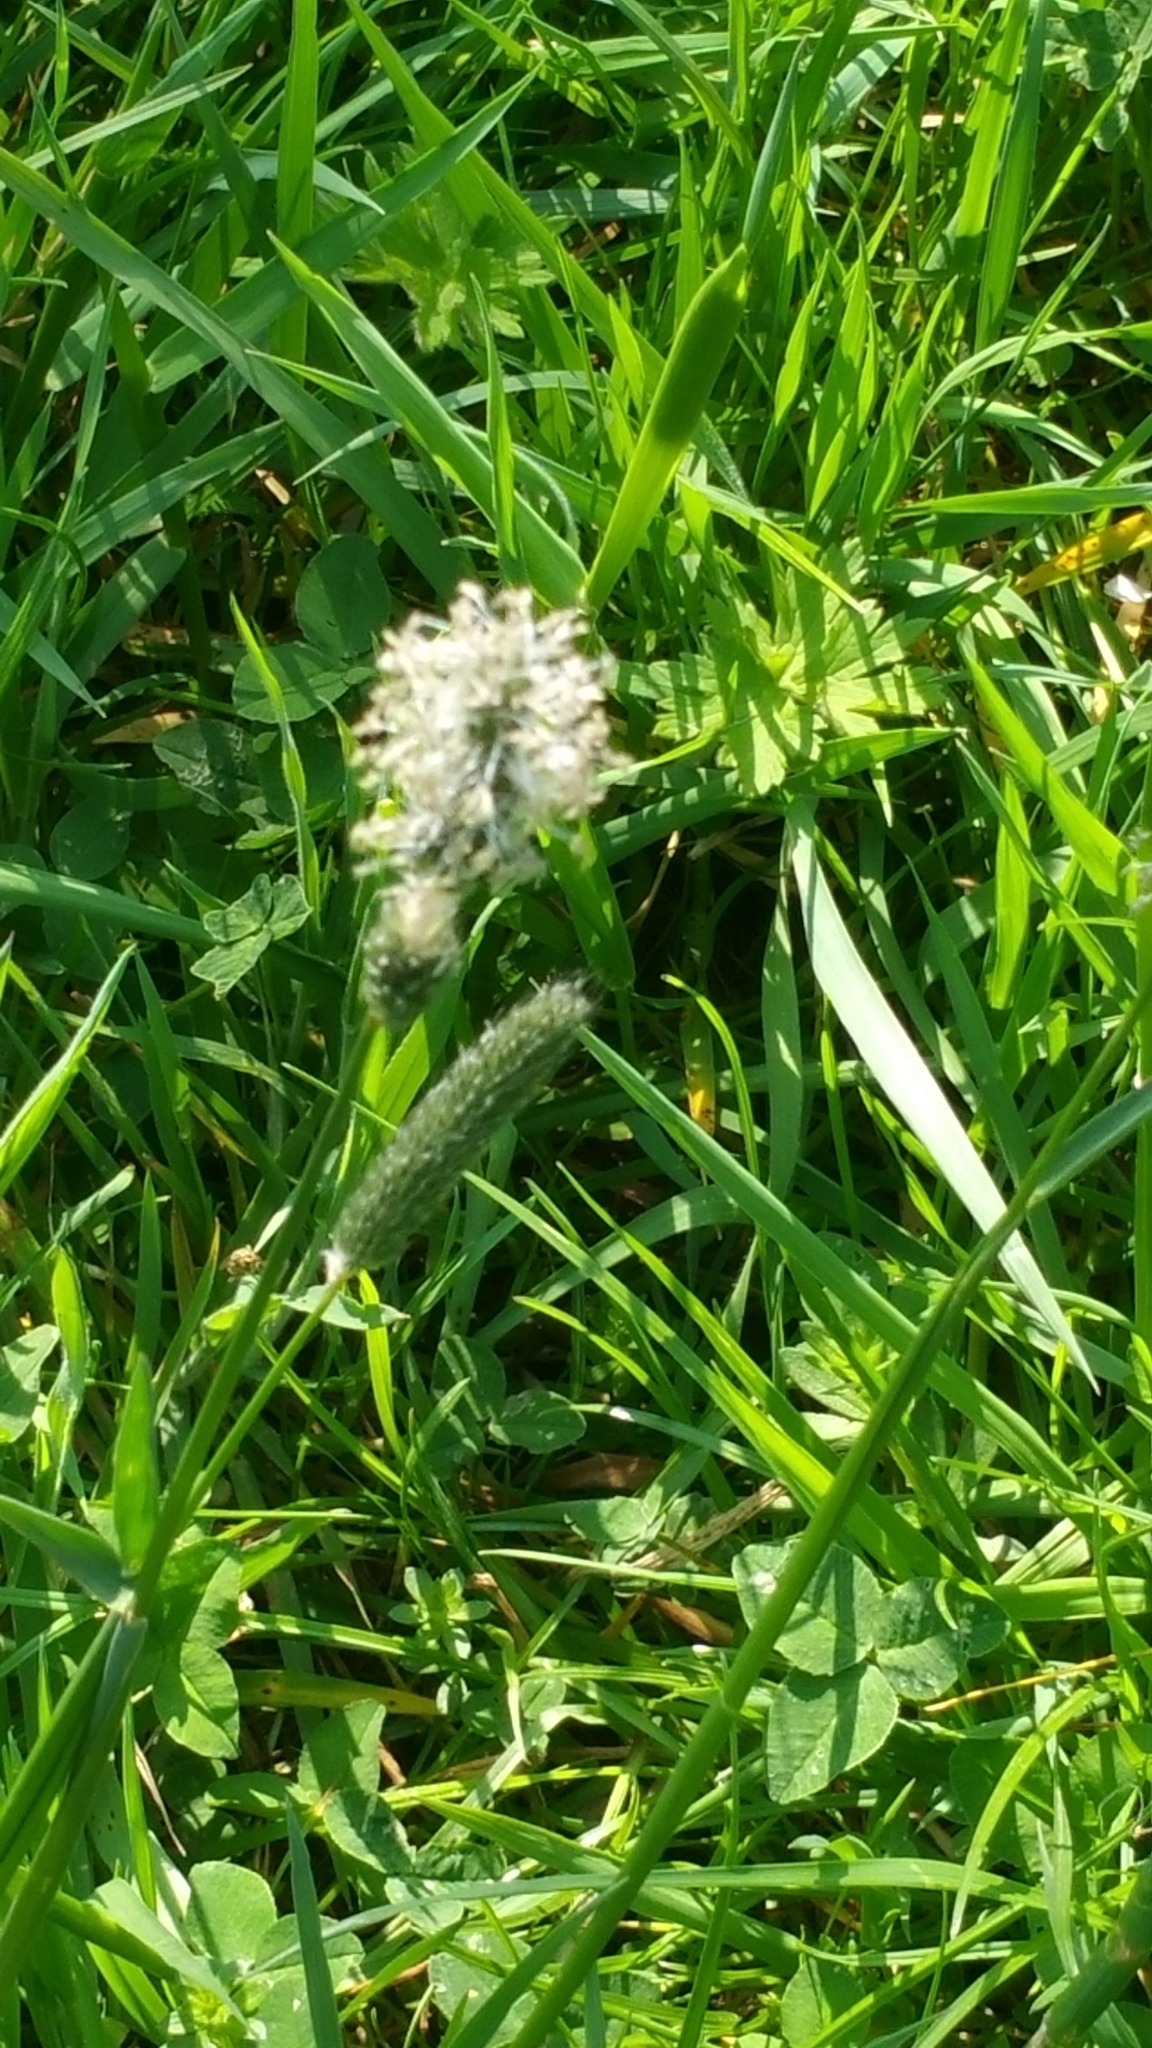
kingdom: Plantae
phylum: Tracheophyta
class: Liliopsida
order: Poales
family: Poaceae
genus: Alopecurus
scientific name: Alopecurus pratensis
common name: Meadow foxtail
